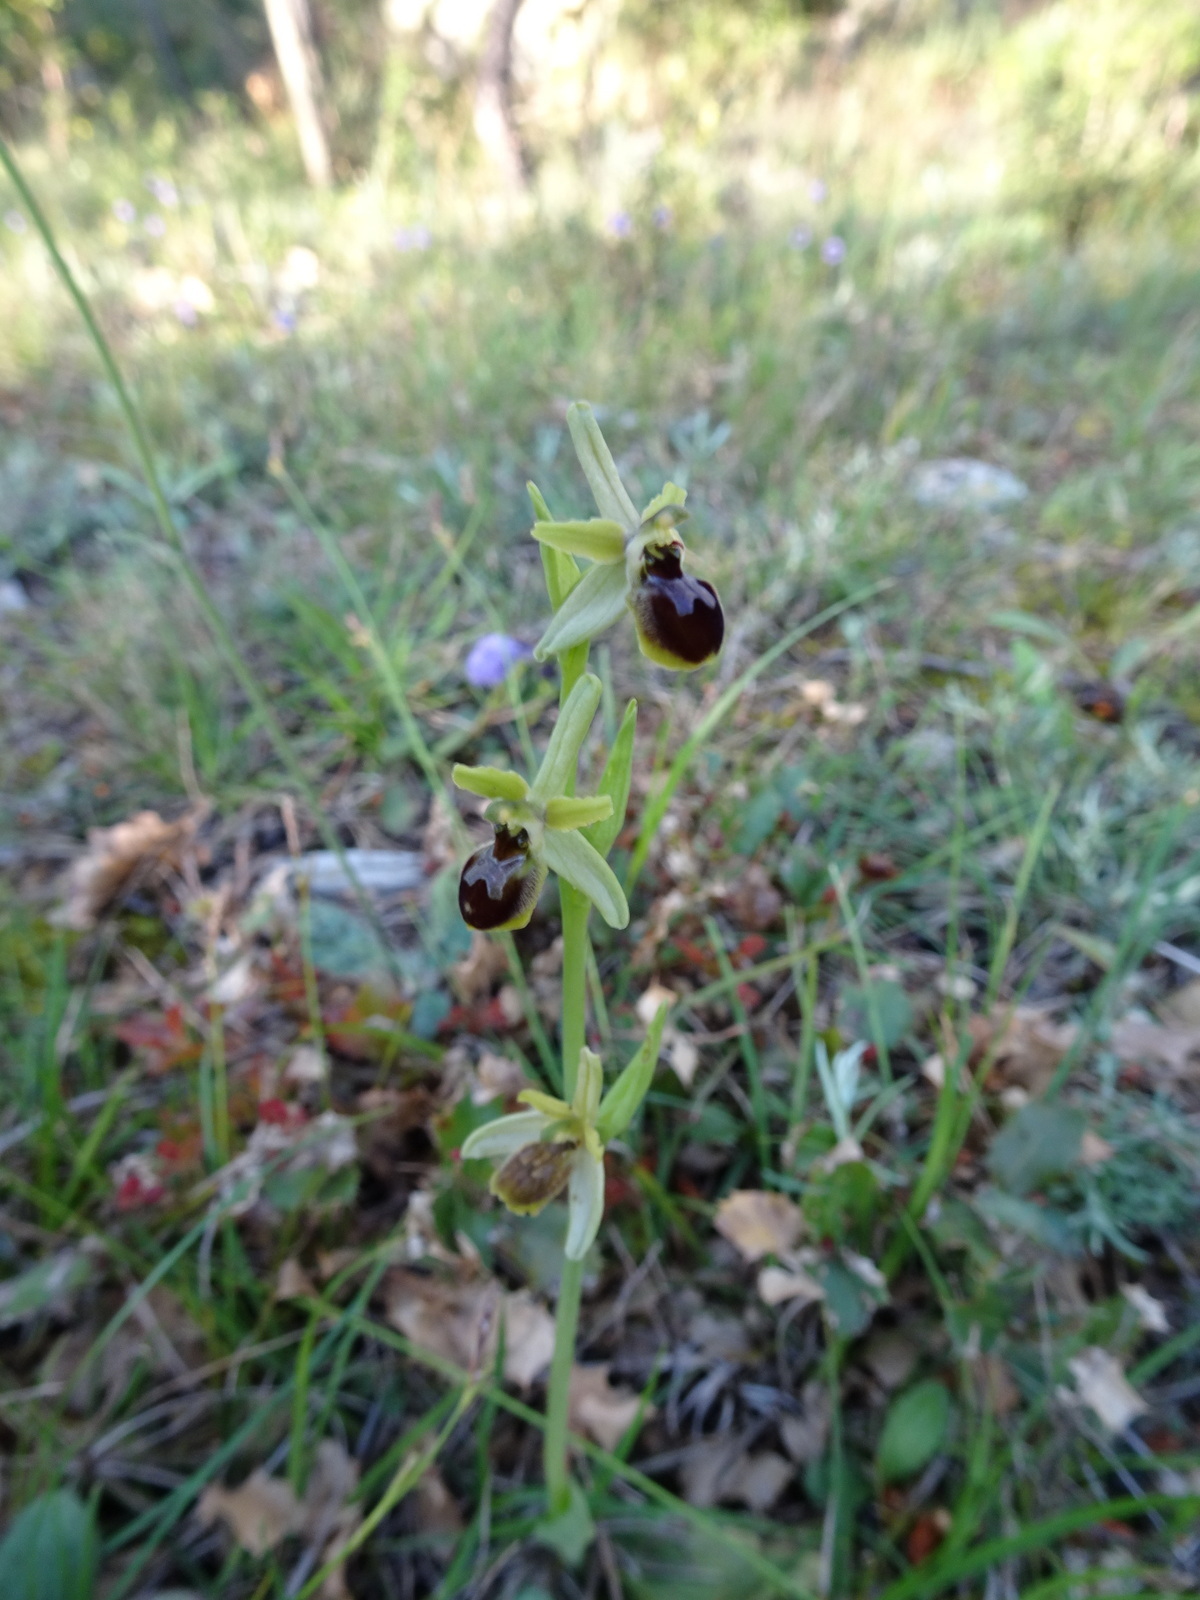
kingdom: Plantae
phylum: Tracheophyta
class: Liliopsida
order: Asparagales
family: Orchidaceae
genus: Ophrys
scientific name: Ophrys sphegodes
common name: Early spider-orchid
